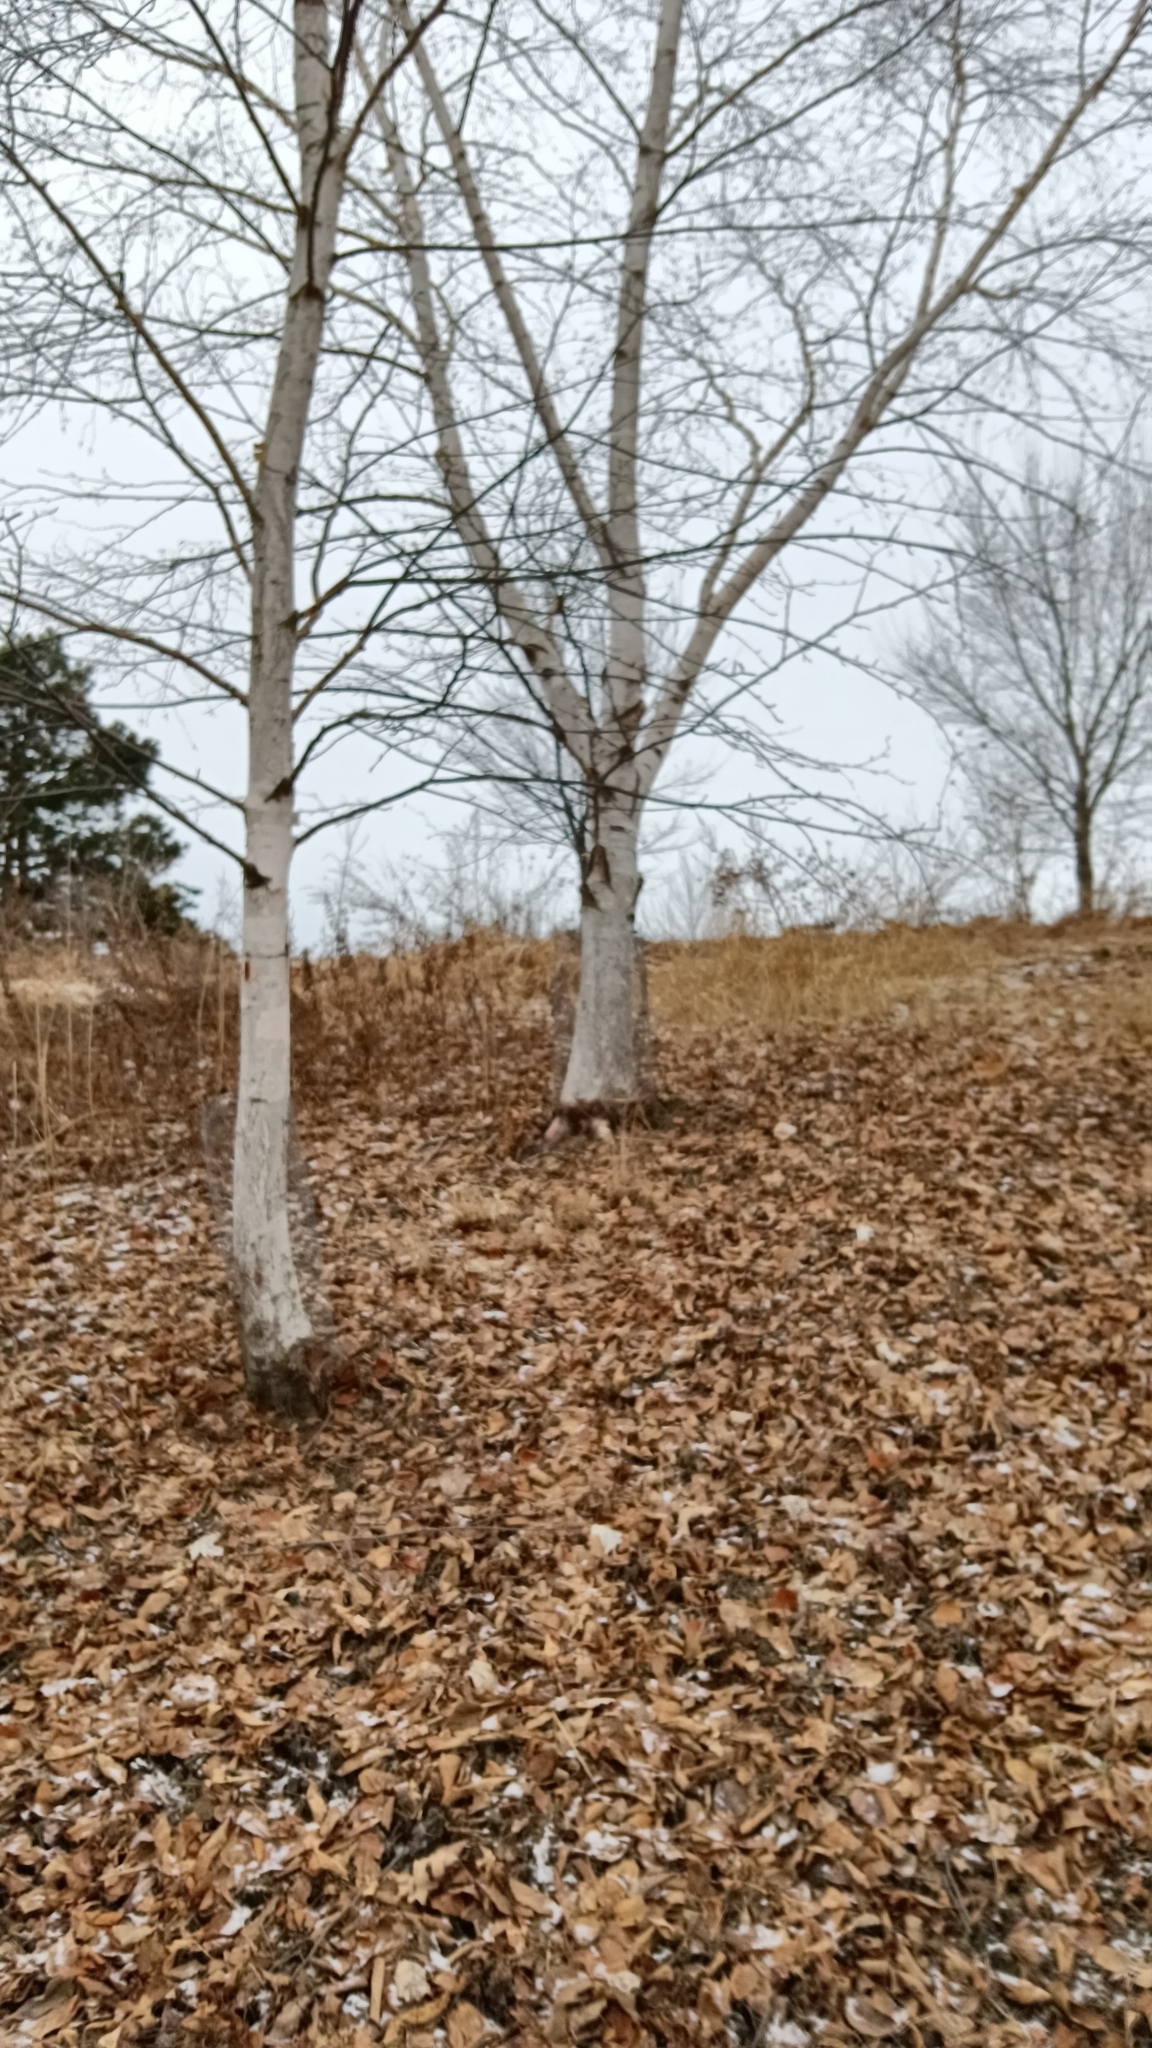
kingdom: Plantae
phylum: Tracheophyta
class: Magnoliopsida
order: Fagales
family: Betulaceae
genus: Betula
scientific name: Betula papyrifera
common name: Paper birch
